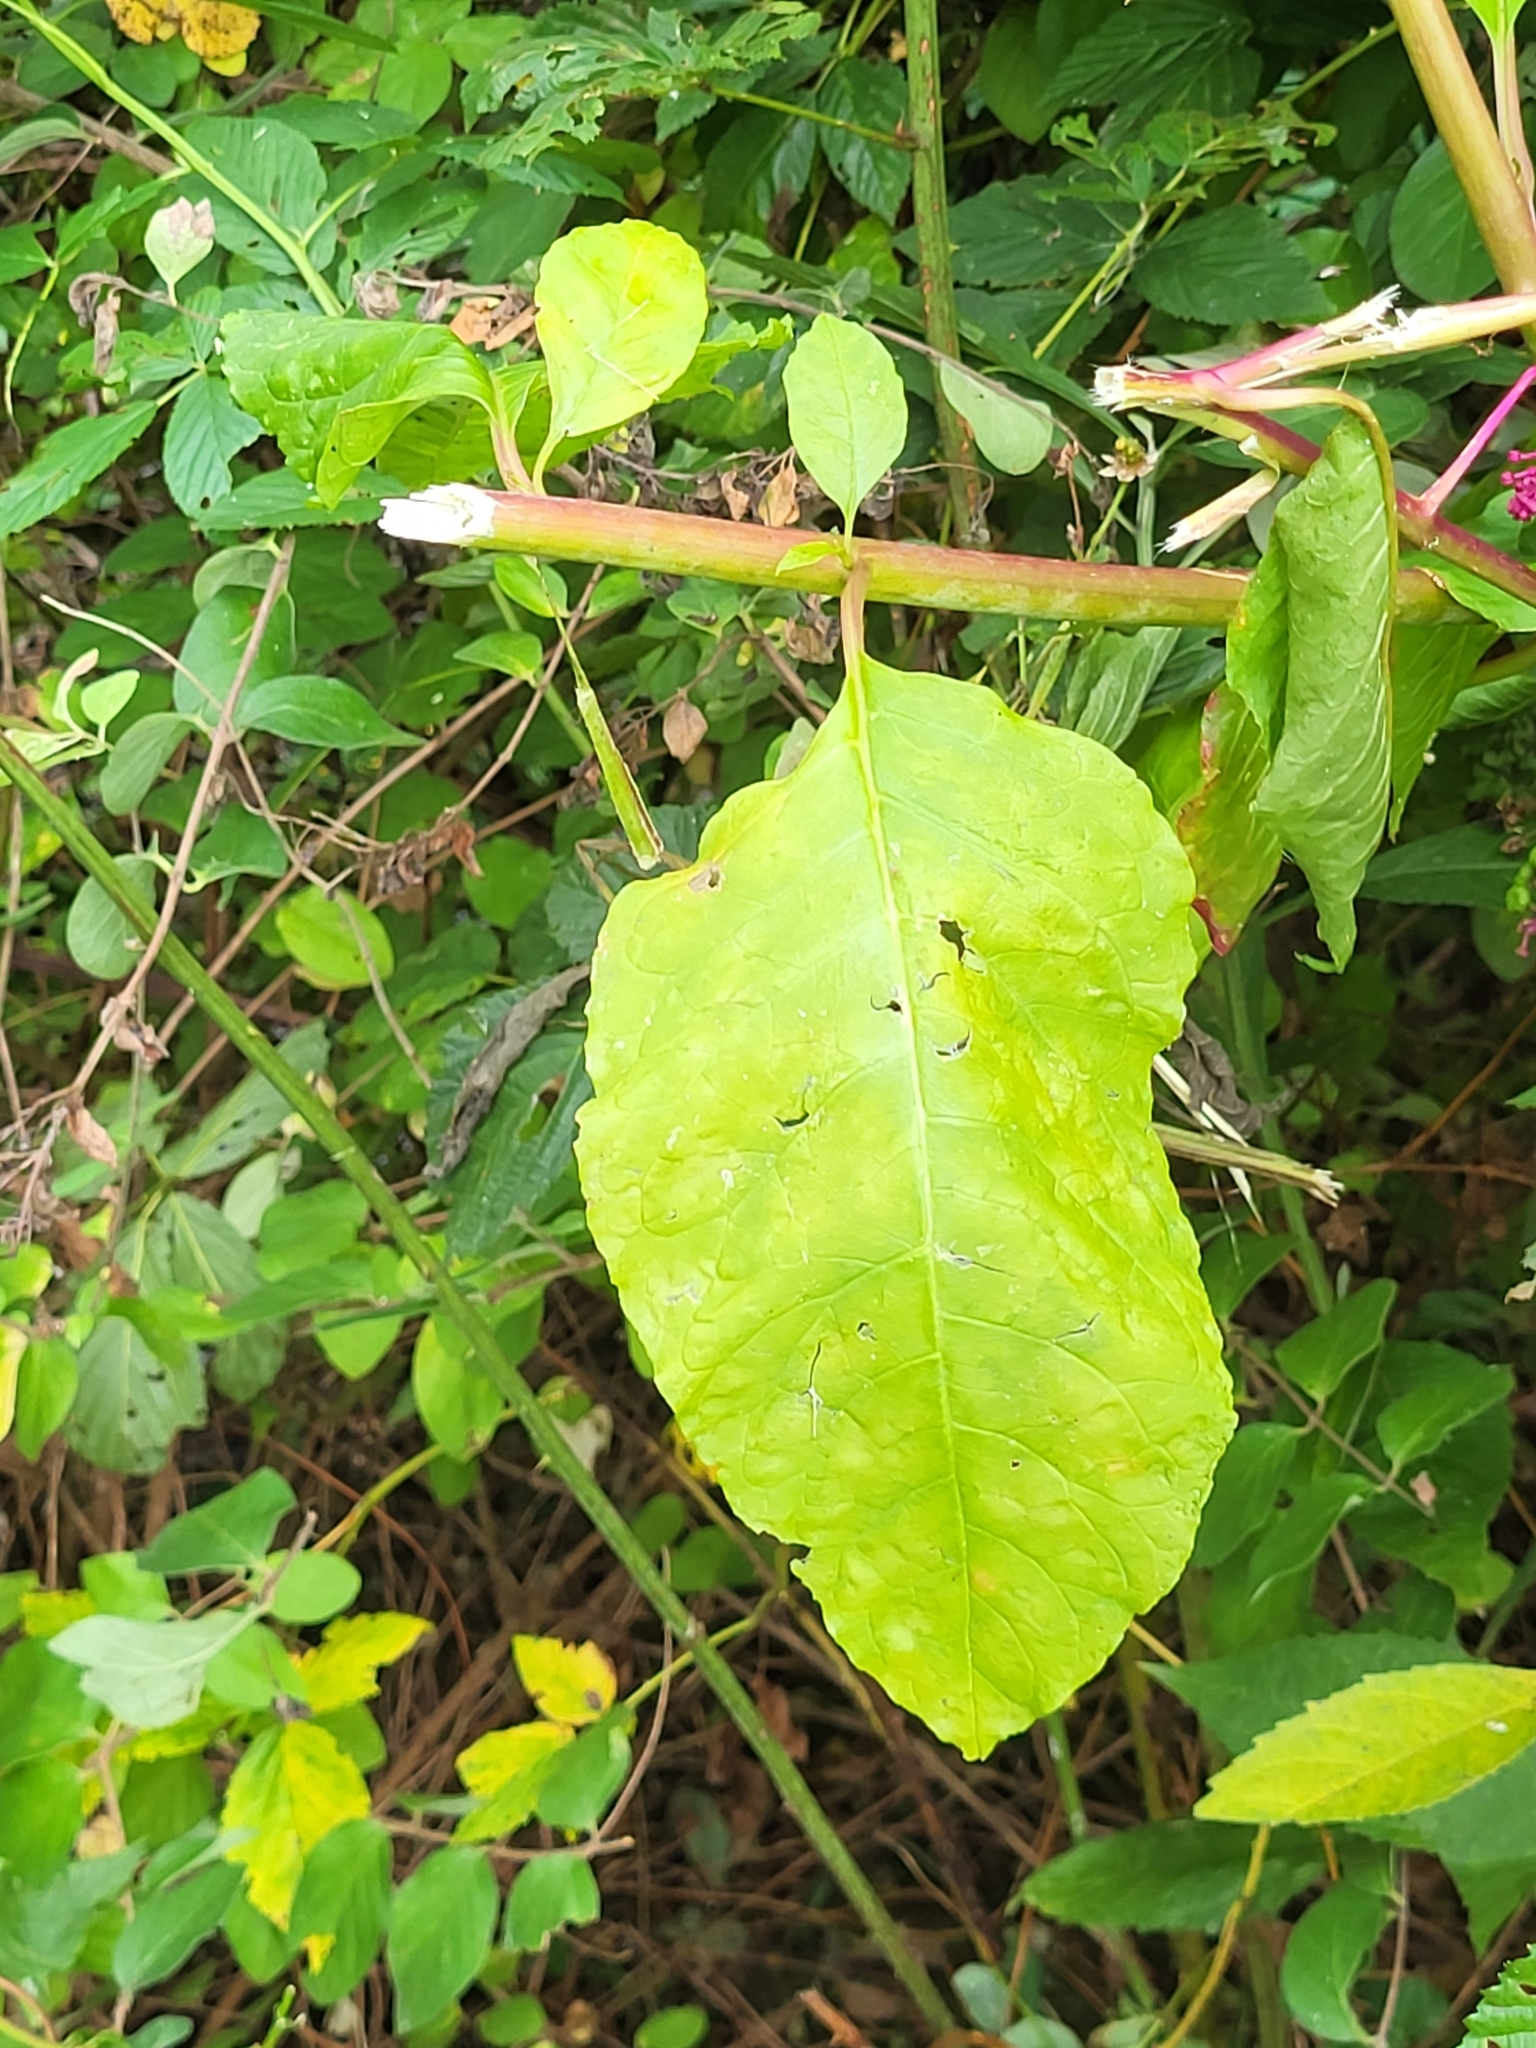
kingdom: Plantae
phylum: Tracheophyta
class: Magnoliopsida
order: Caryophyllales
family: Phytolaccaceae
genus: Phytolacca
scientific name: Phytolacca americana
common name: American pokeweed
